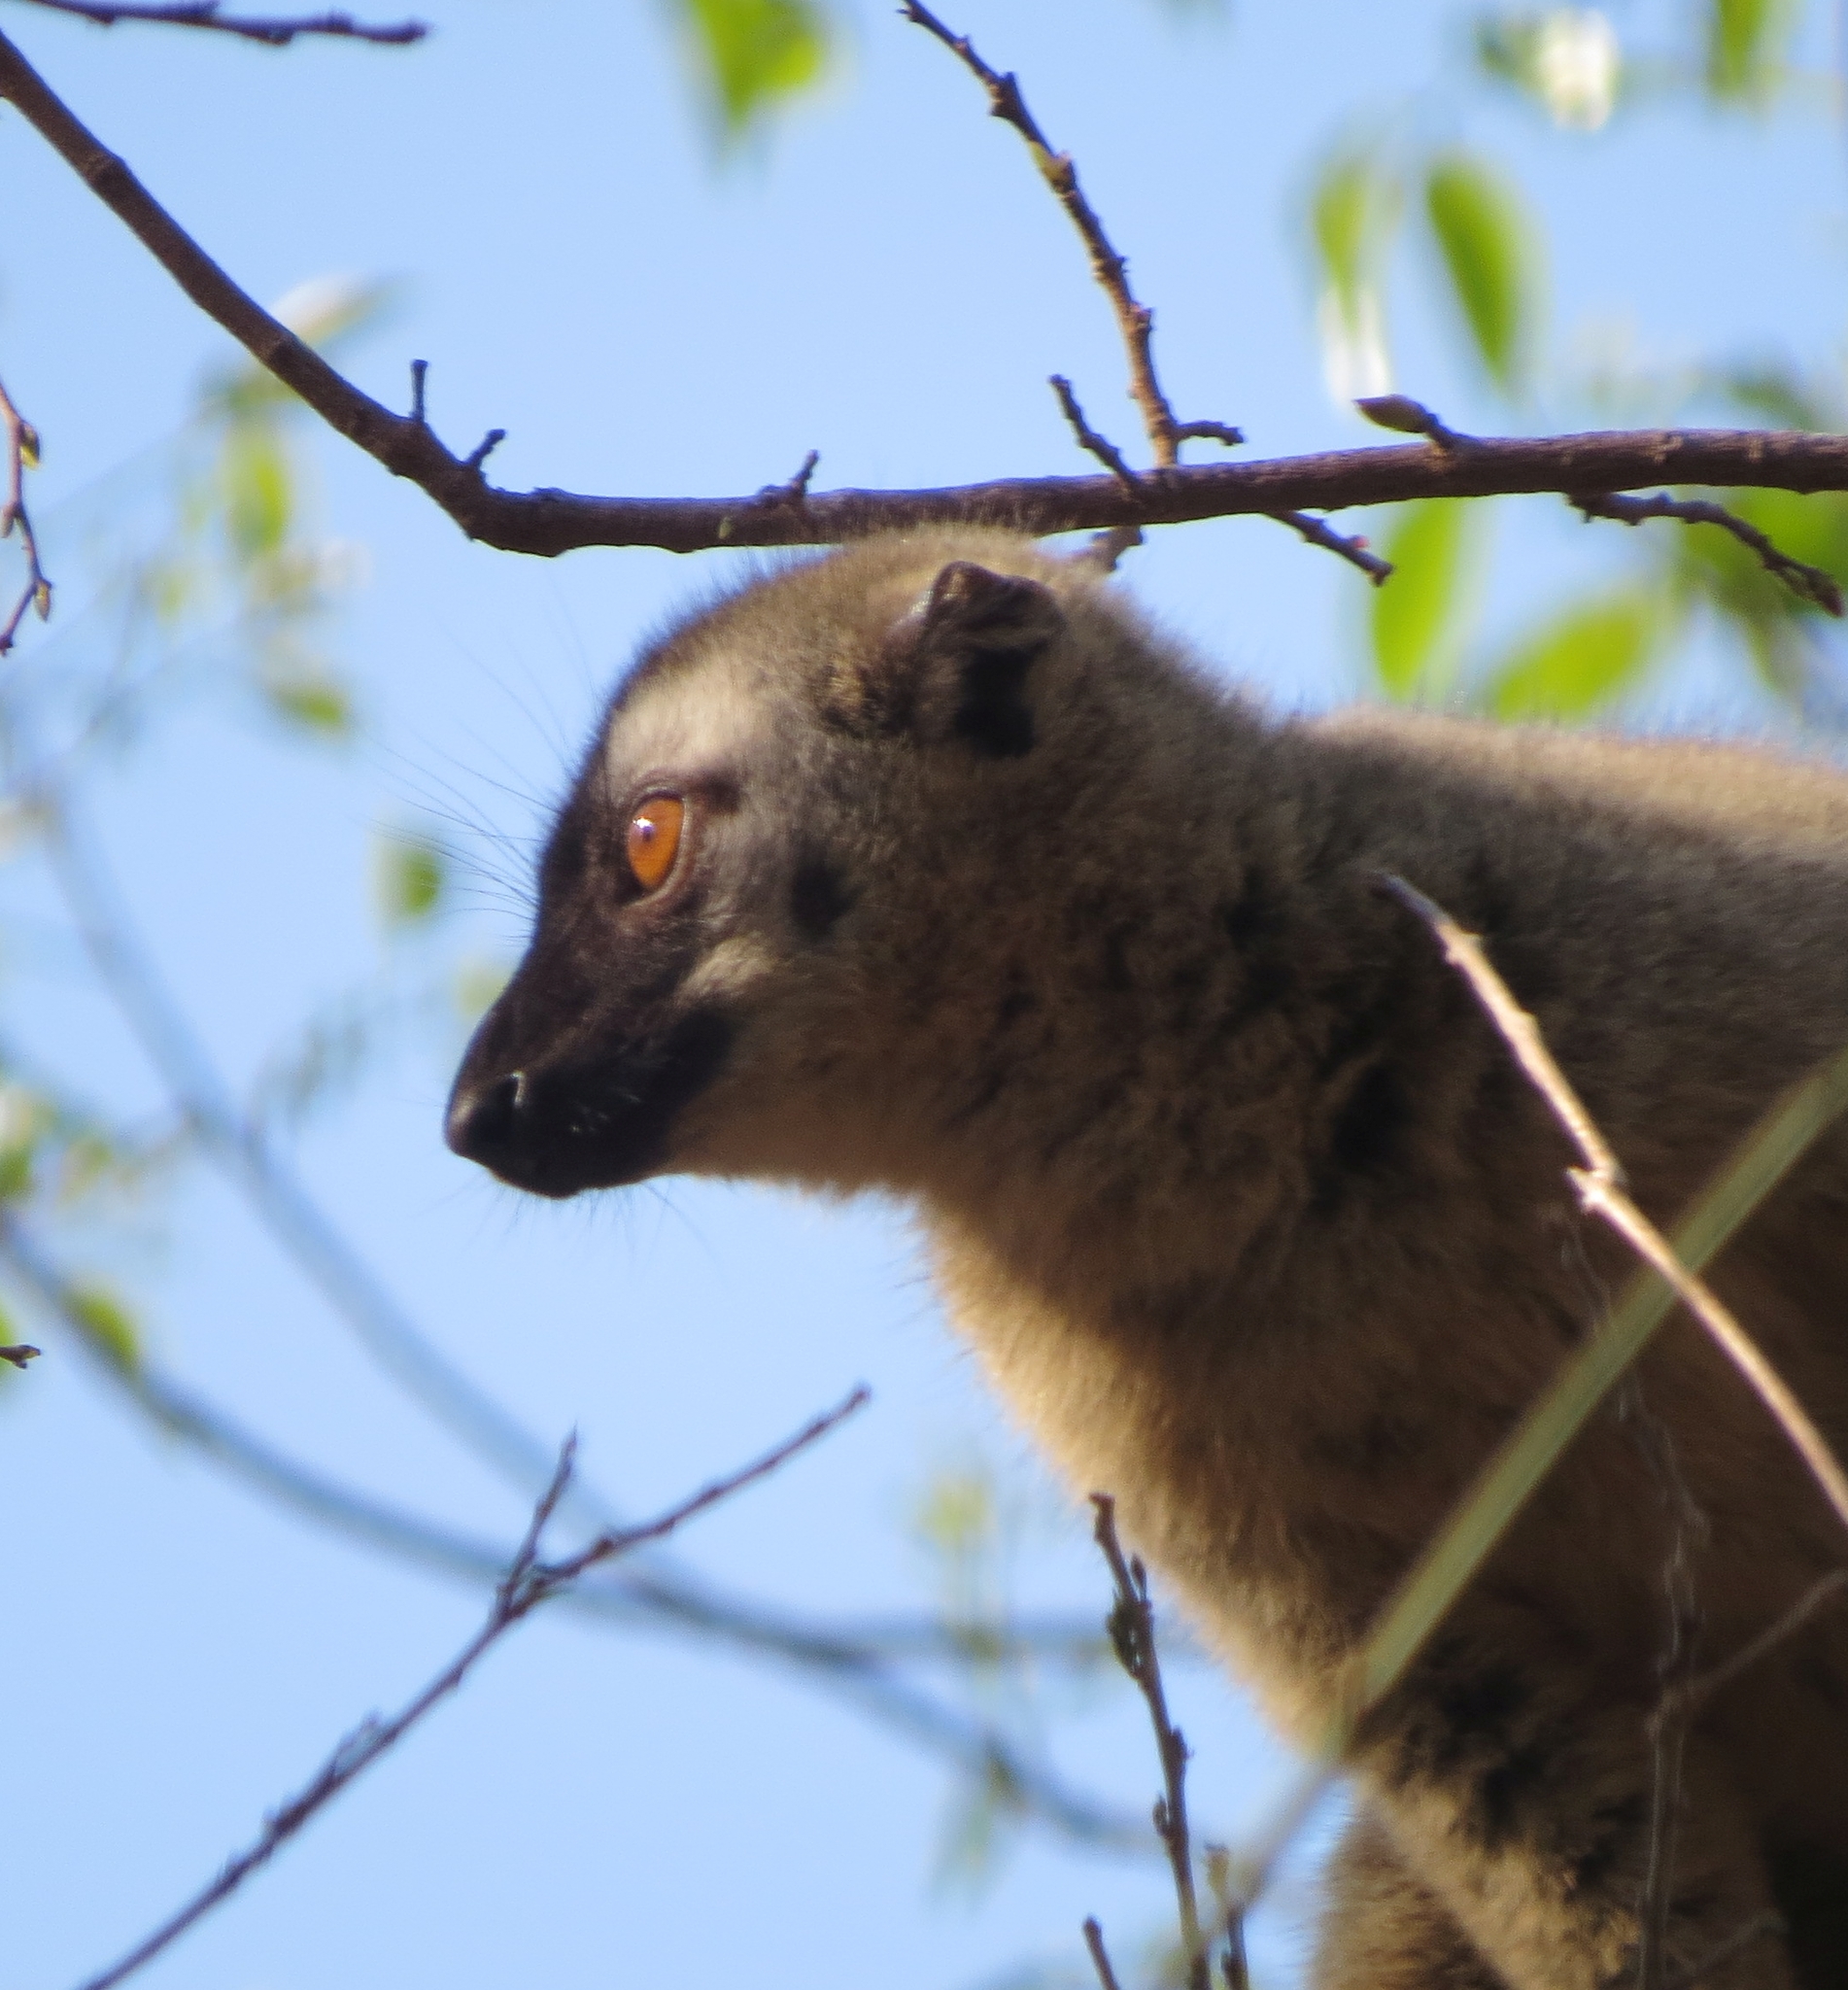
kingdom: Animalia
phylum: Chordata
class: Mammalia
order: Primates
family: Lemuridae
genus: Eulemur
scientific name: Eulemur rufifrons
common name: Red-fronted brown lemur
